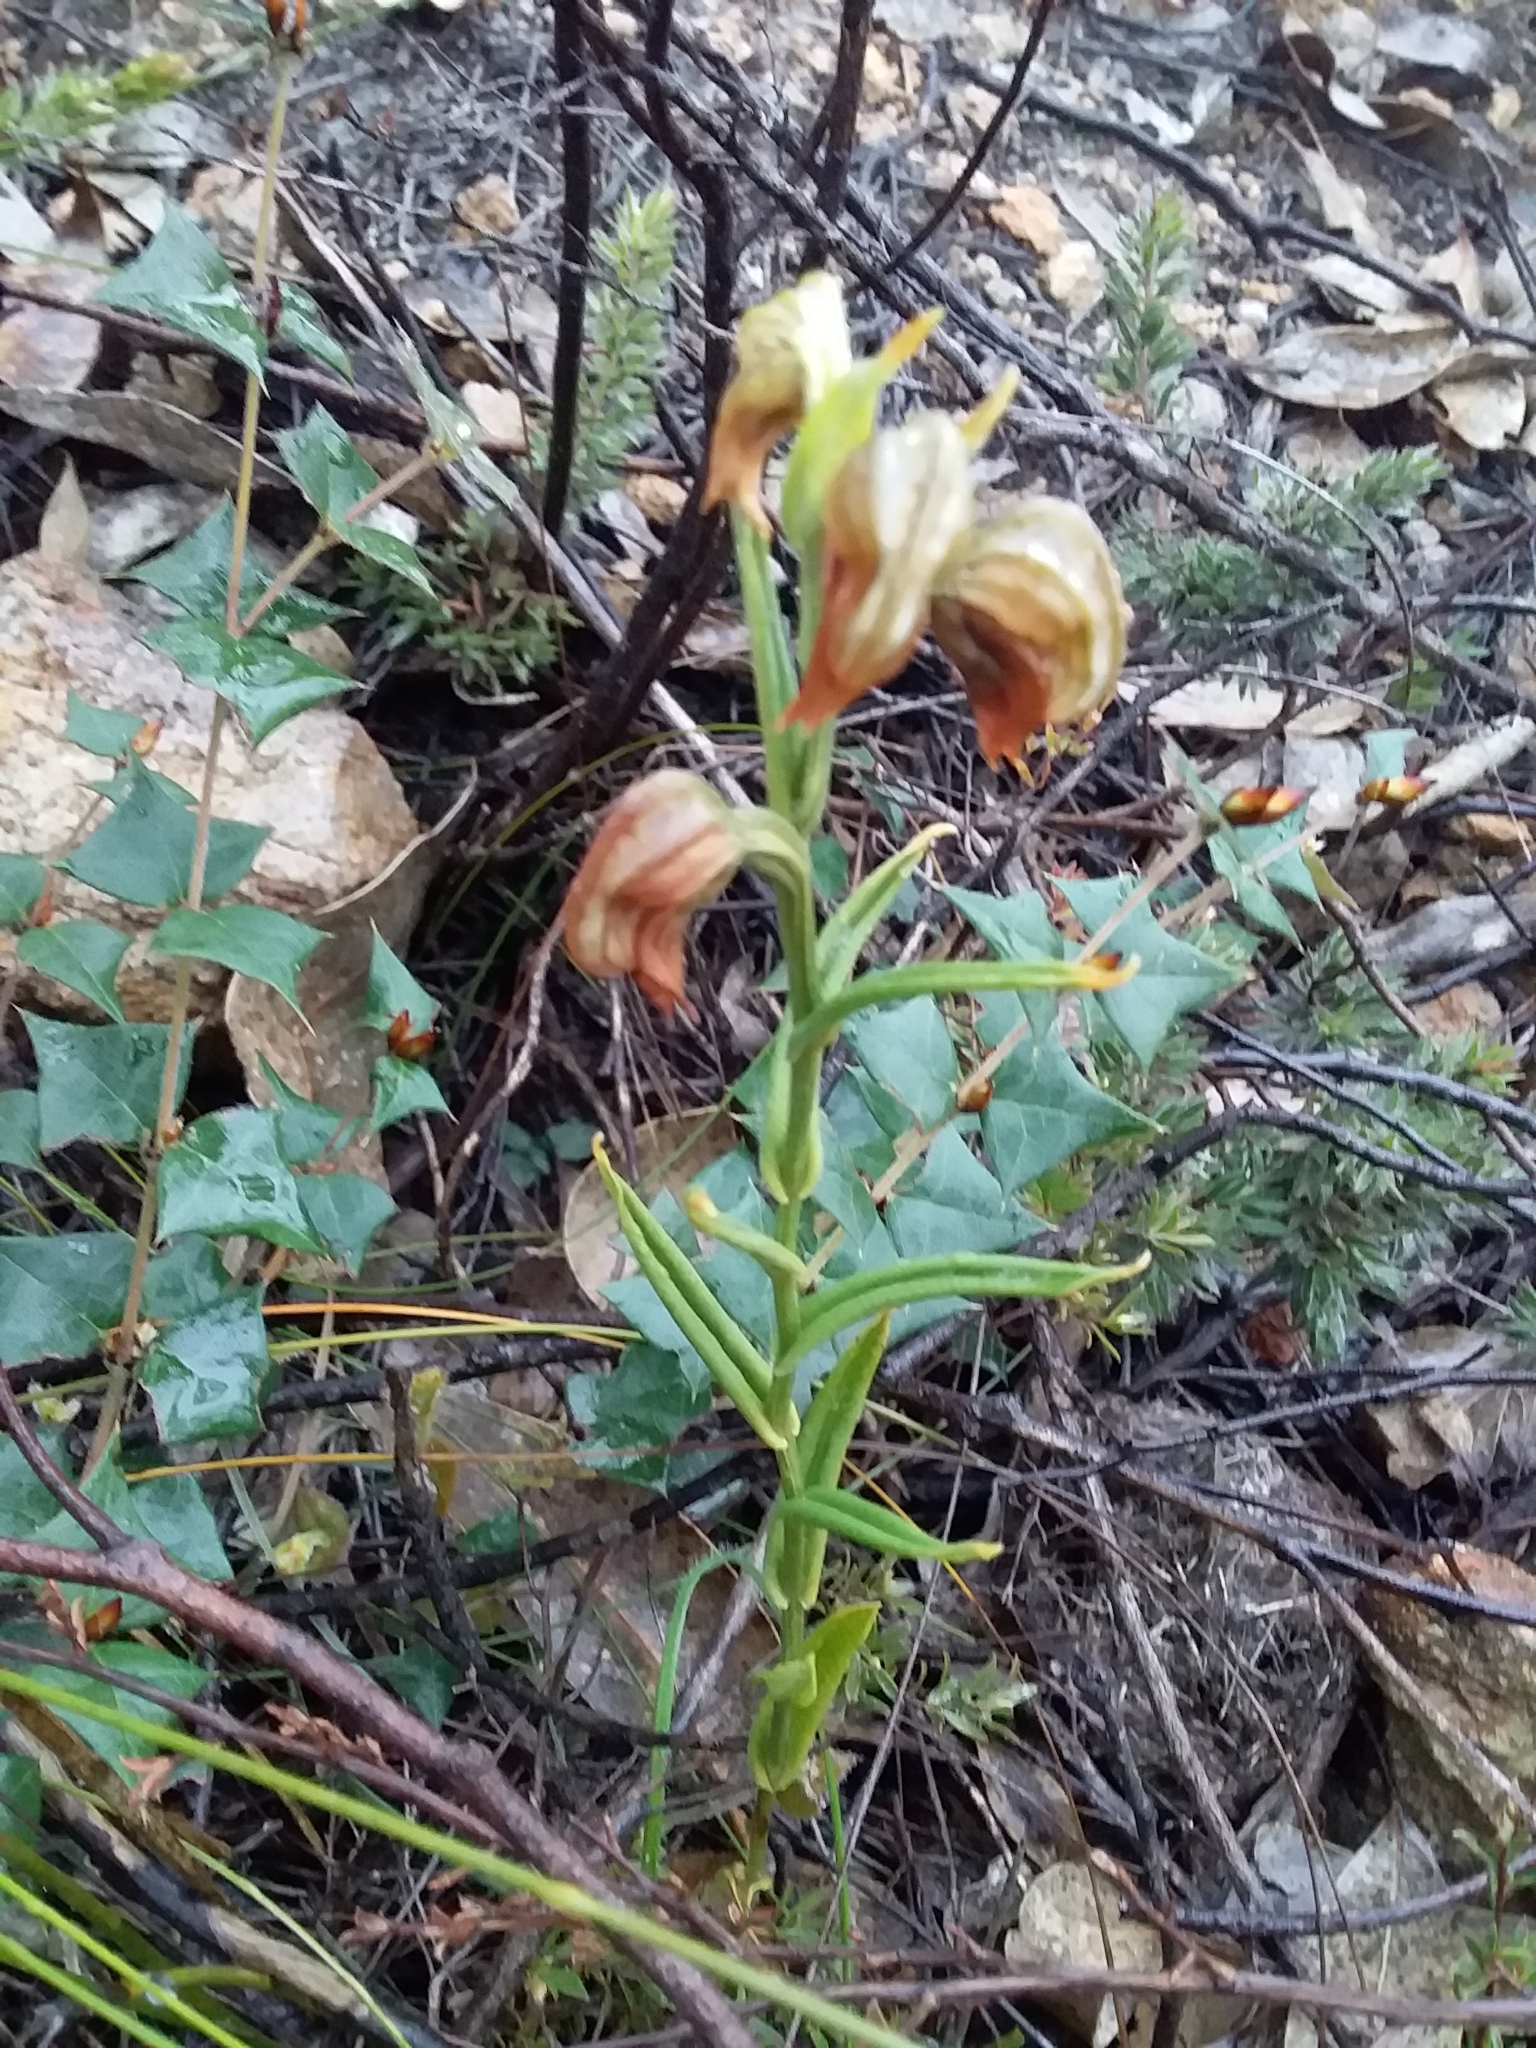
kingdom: Plantae
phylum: Tracheophyta
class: Liliopsida
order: Asparagales
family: Orchidaceae
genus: Pterostylis
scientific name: Pterostylis sanguinea
